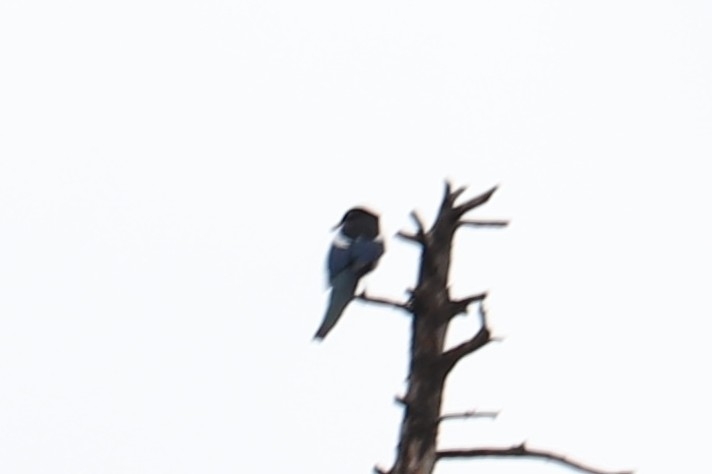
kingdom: Animalia
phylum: Chordata
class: Aves
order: Passeriformes
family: Corvidae
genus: Pica
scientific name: Pica hudsonia
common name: Black-billed magpie
